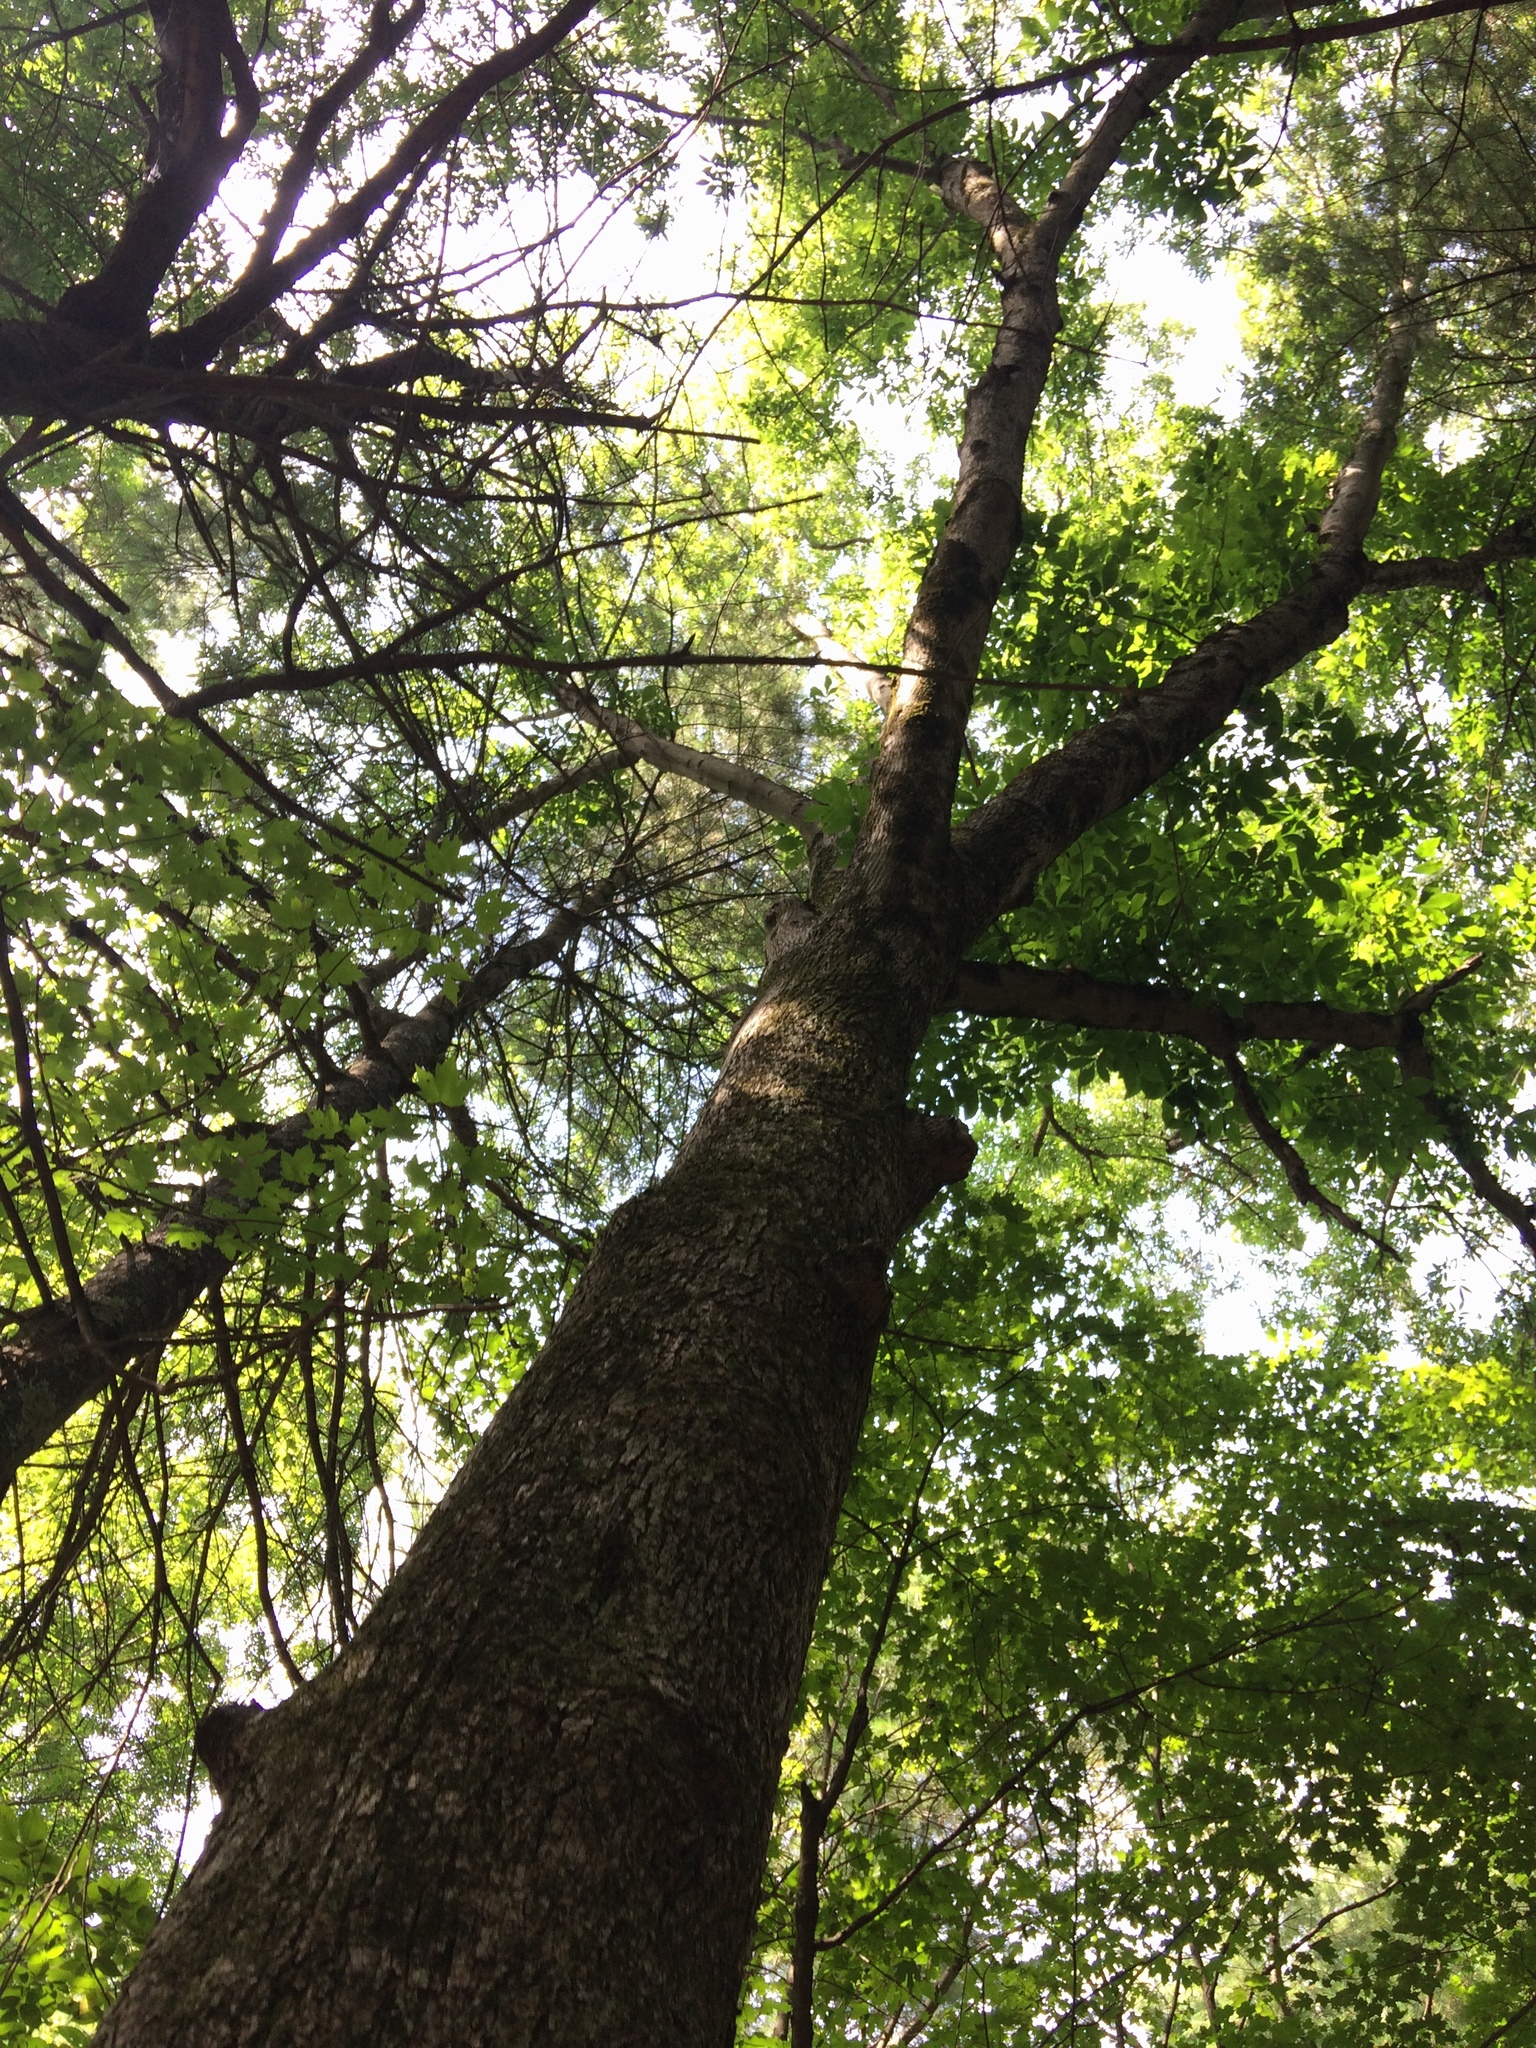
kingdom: Plantae
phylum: Tracheophyta
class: Magnoliopsida
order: Fagales
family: Juglandaceae
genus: Carya
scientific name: Carya cordiformis
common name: Bitternut hickory
